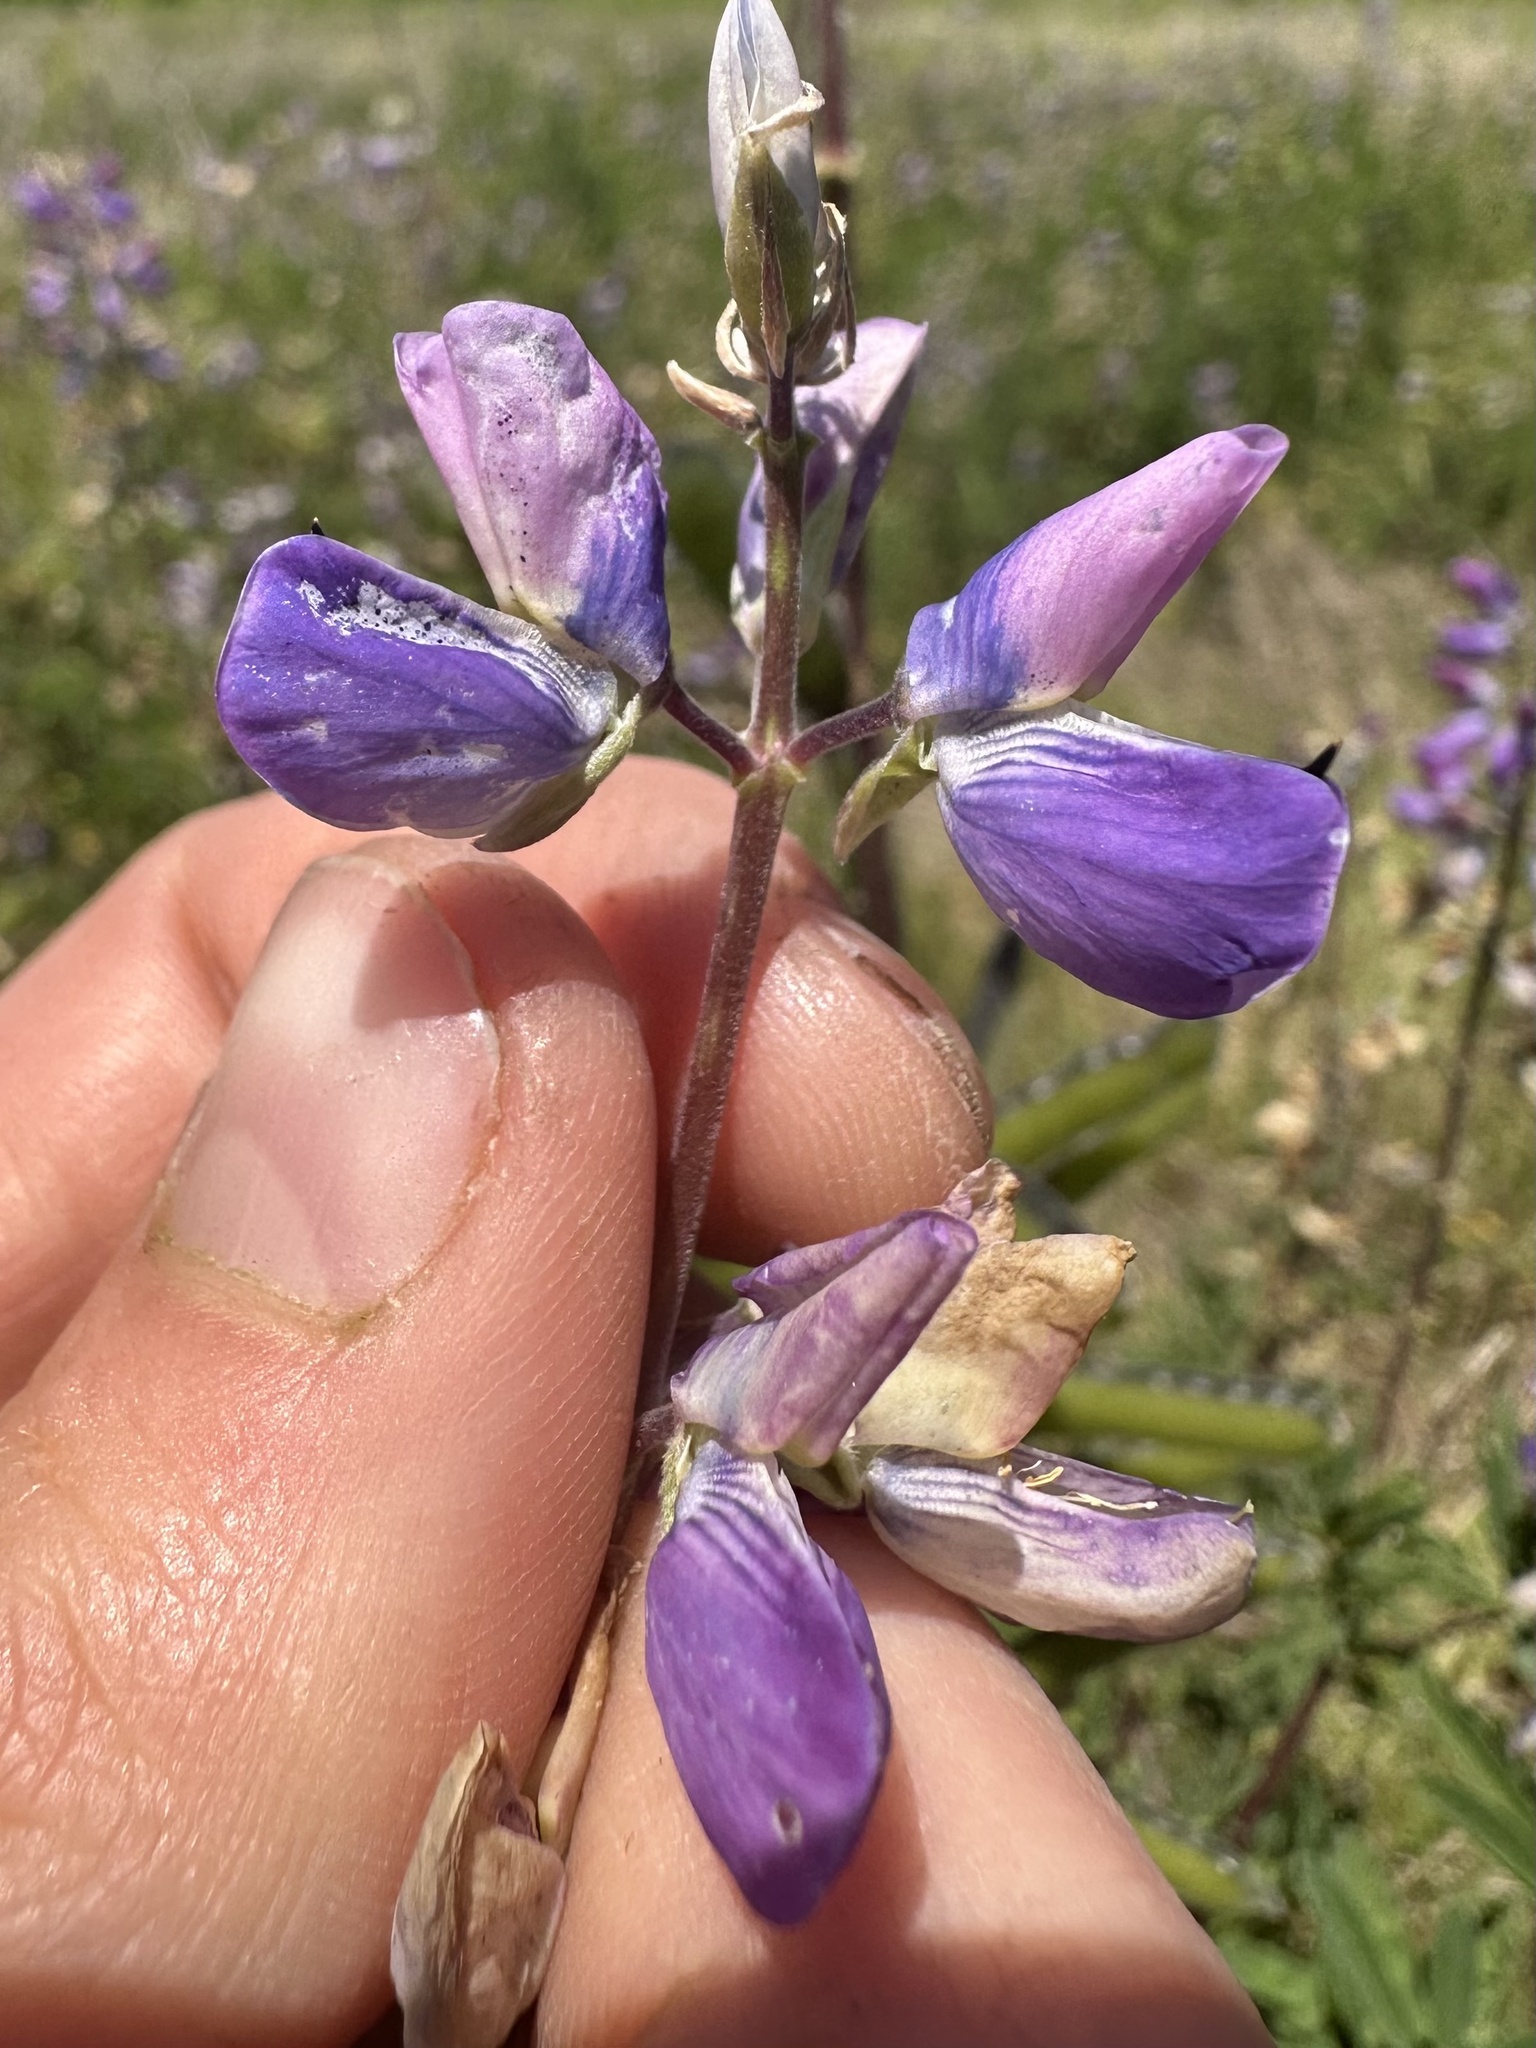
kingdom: Plantae
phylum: Tracheophyta
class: Magnoliopsida
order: Fabales
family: Fabaceae
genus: Lupinus
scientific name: Lupinus rivularis
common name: Riverbank lupine
